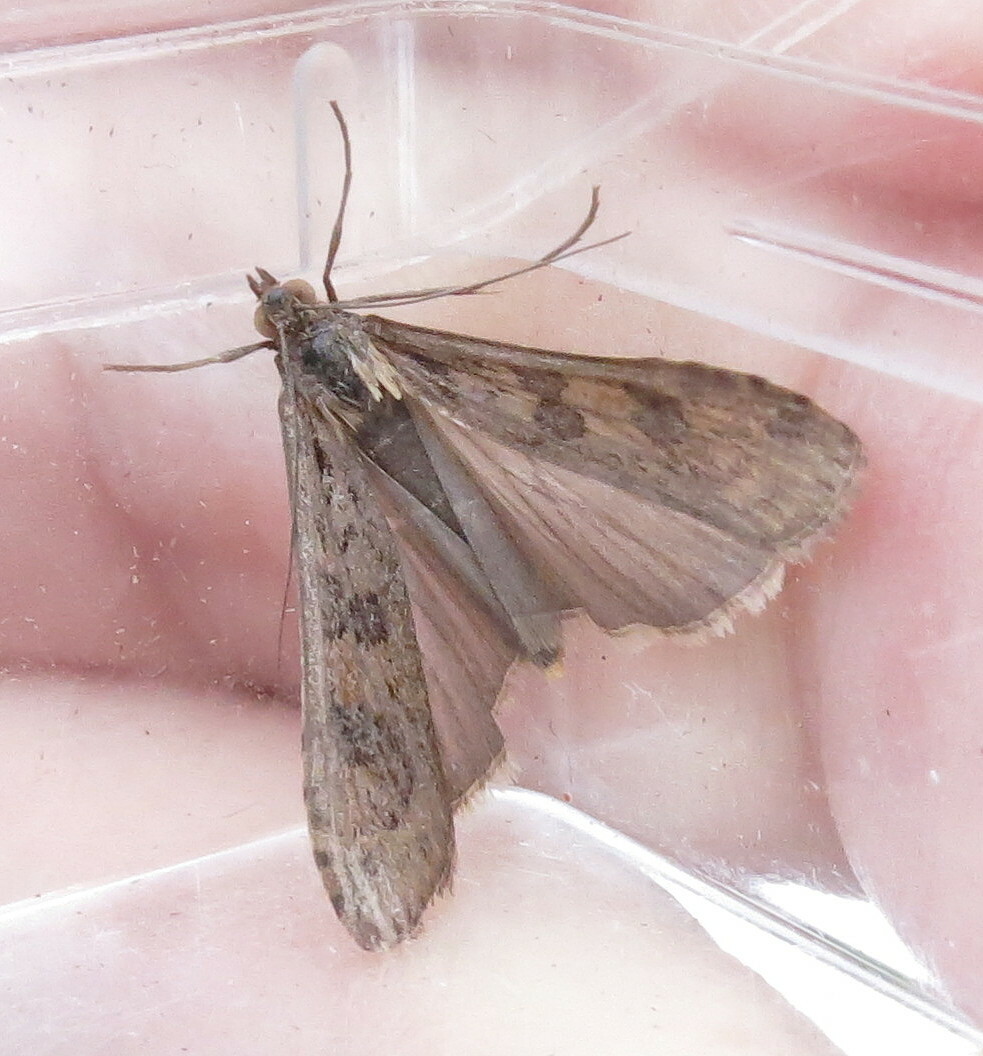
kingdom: Animalia
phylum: Arthropoda
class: Insecta
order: Lepidoptera
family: Crambidae
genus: Nomophila
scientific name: Nomophila noctuella
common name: Rush veneer
